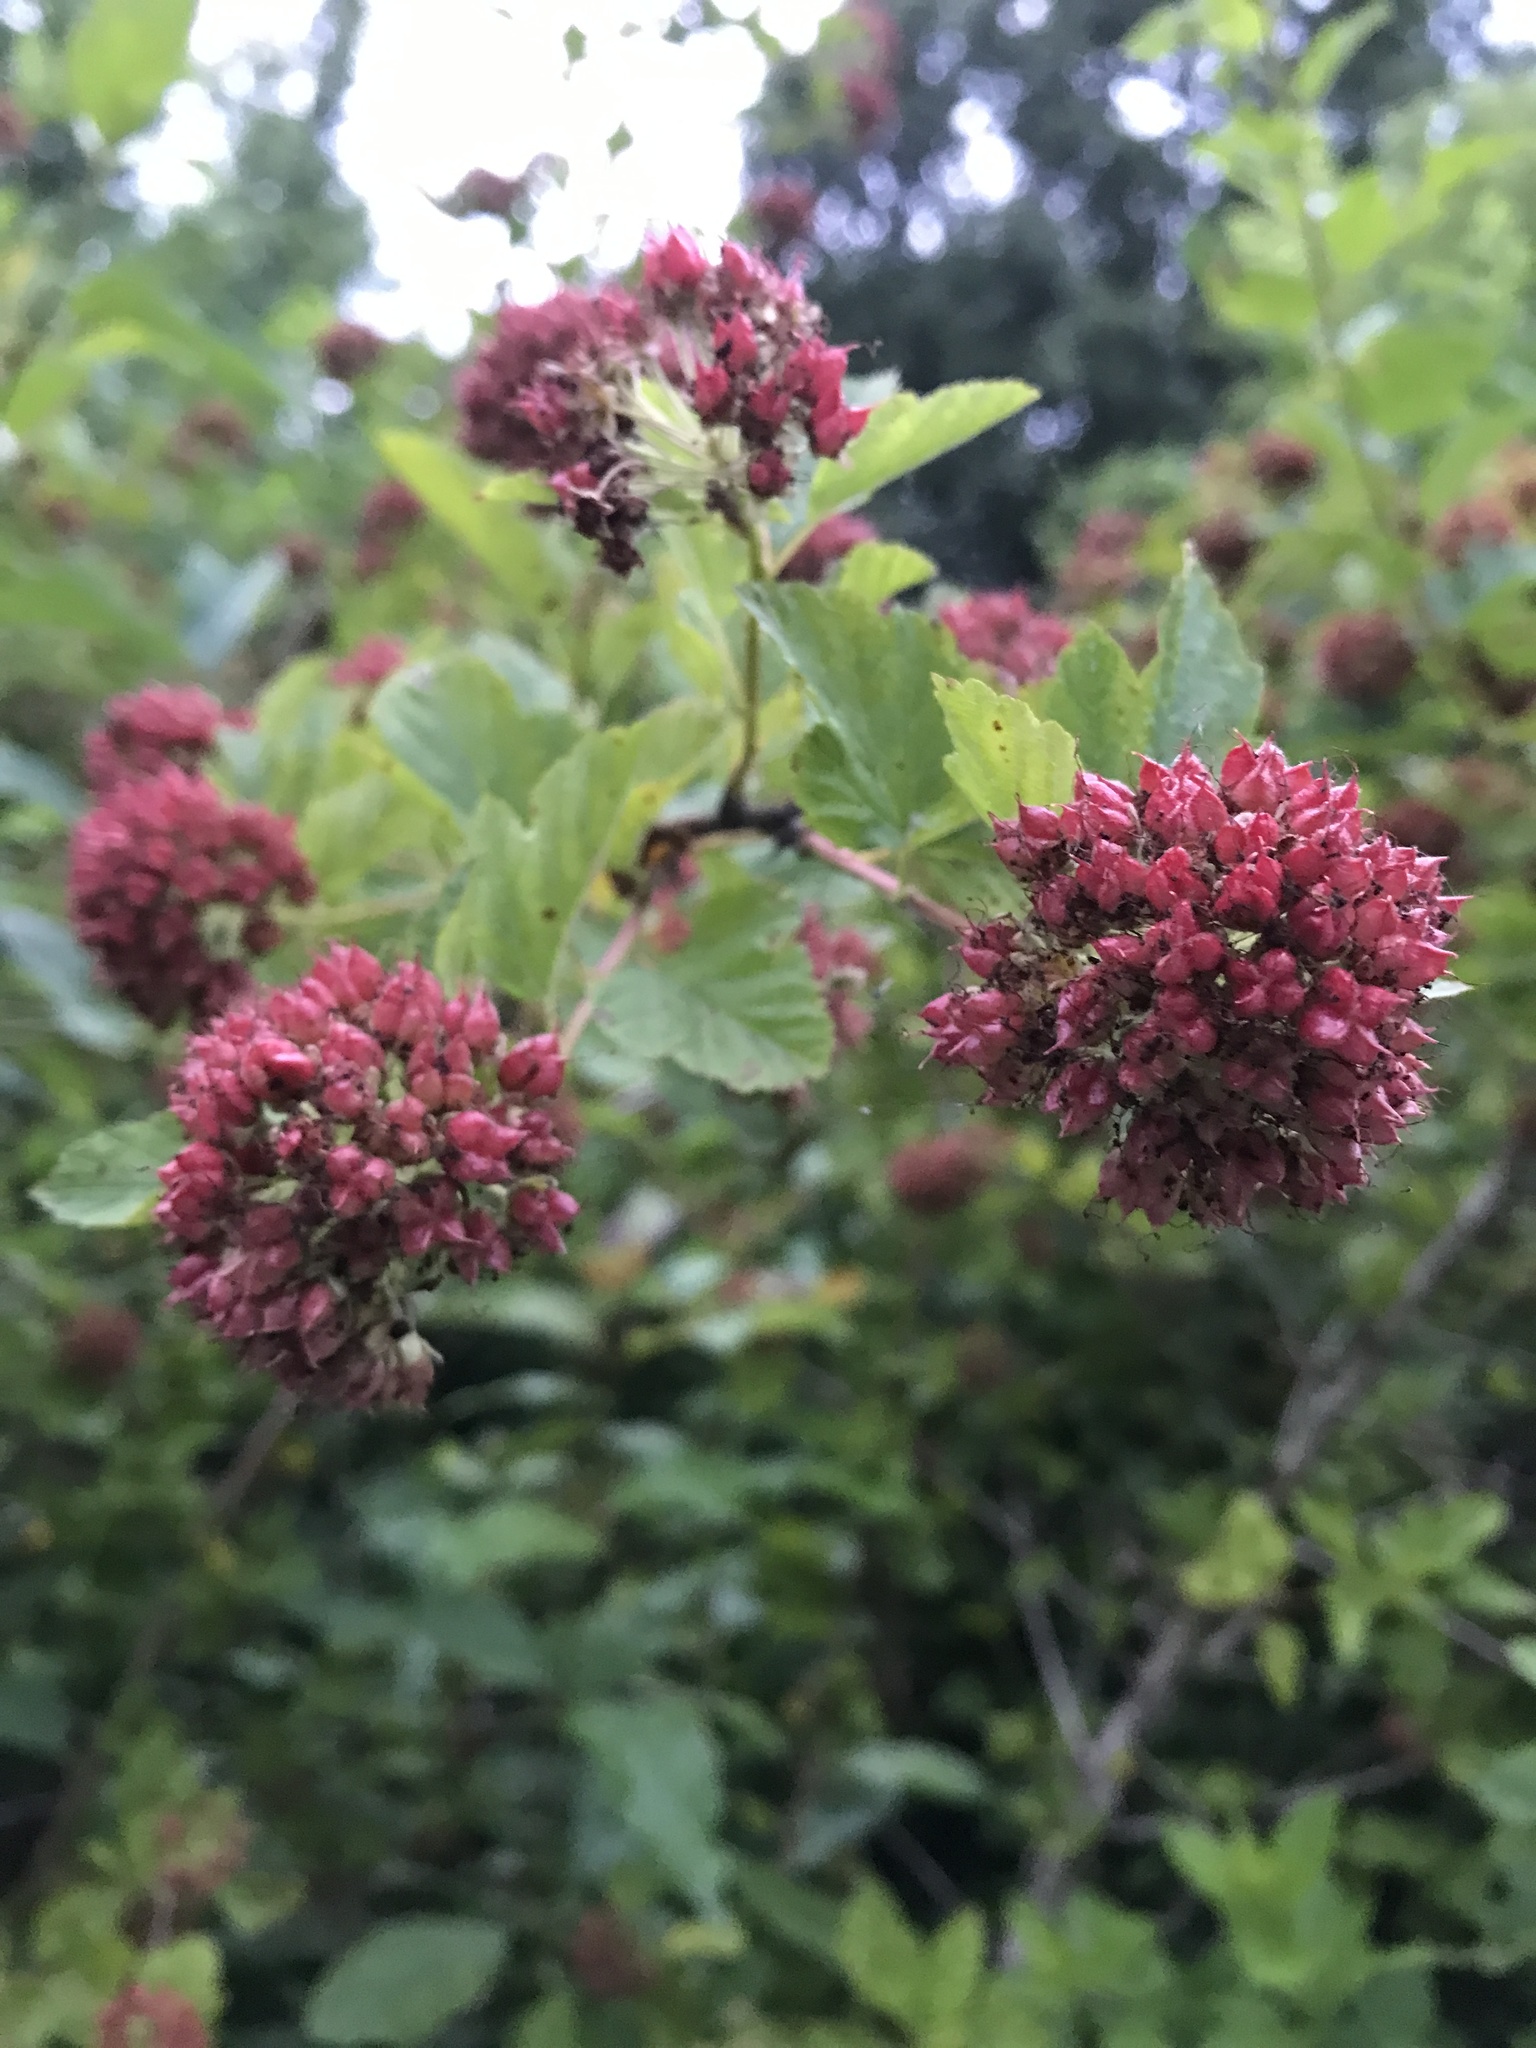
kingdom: Plantae
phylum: Tracheophyta
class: Magnoliopsida
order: Rosales
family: Rosaceae
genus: Physocarpus
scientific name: Physocarpus opulifolius
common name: Ninebark
